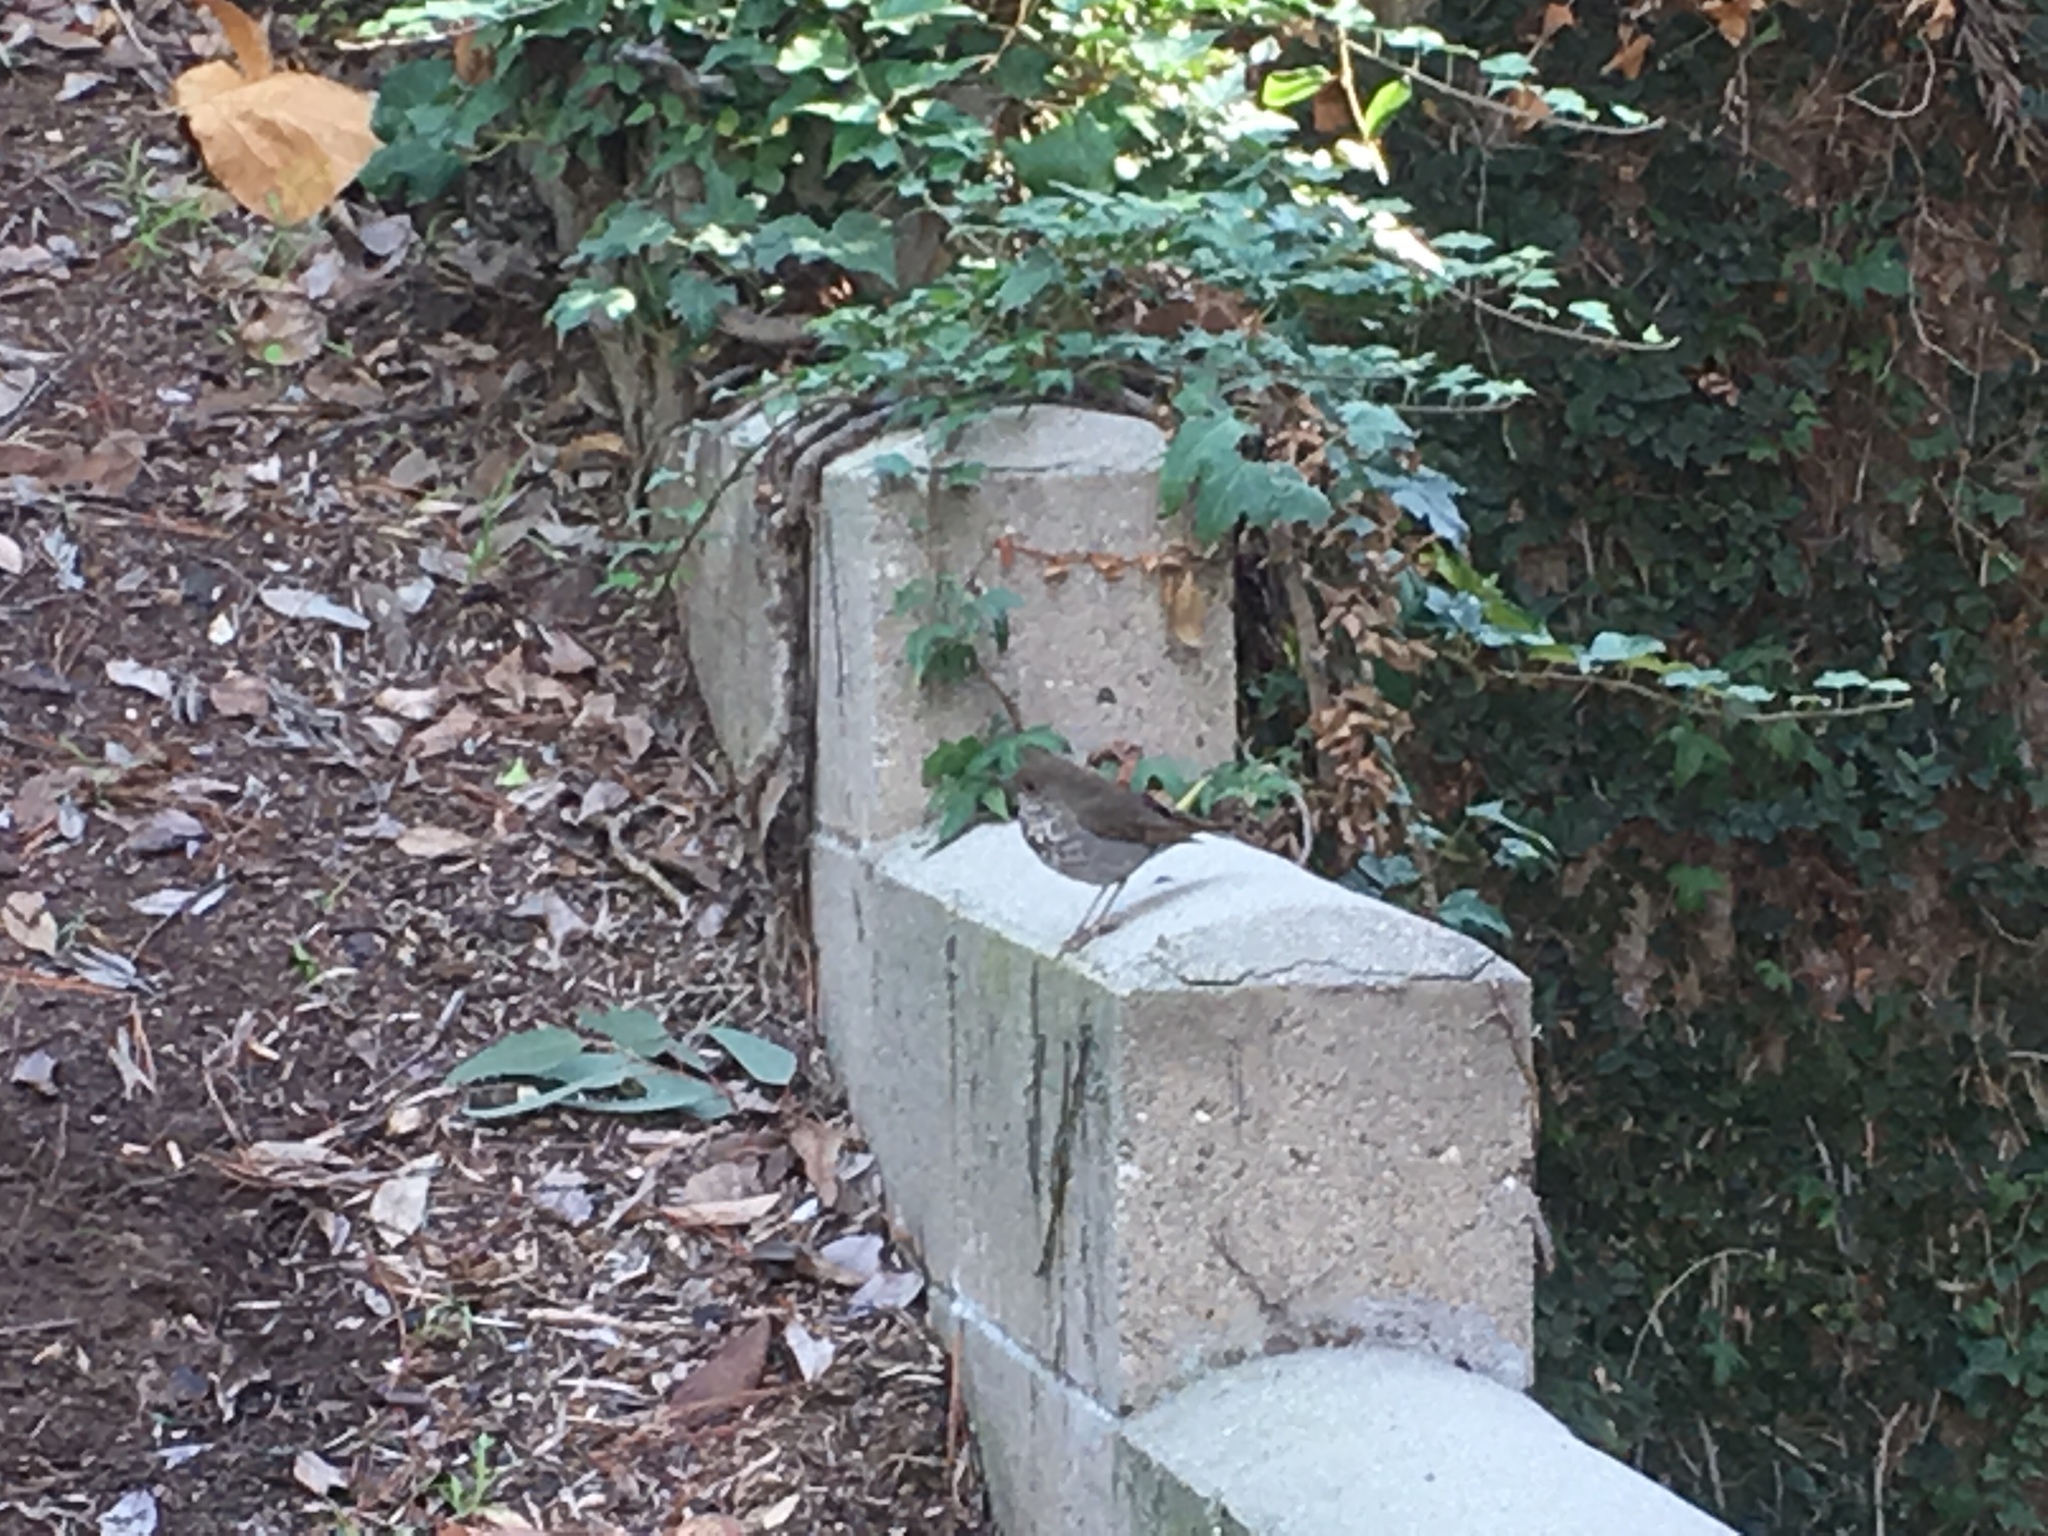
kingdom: Animalia
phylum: Chordata
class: Aves
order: Passeriformes
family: Turdidae
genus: Catharus
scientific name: Catharus guttatus
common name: Hermit thrush
